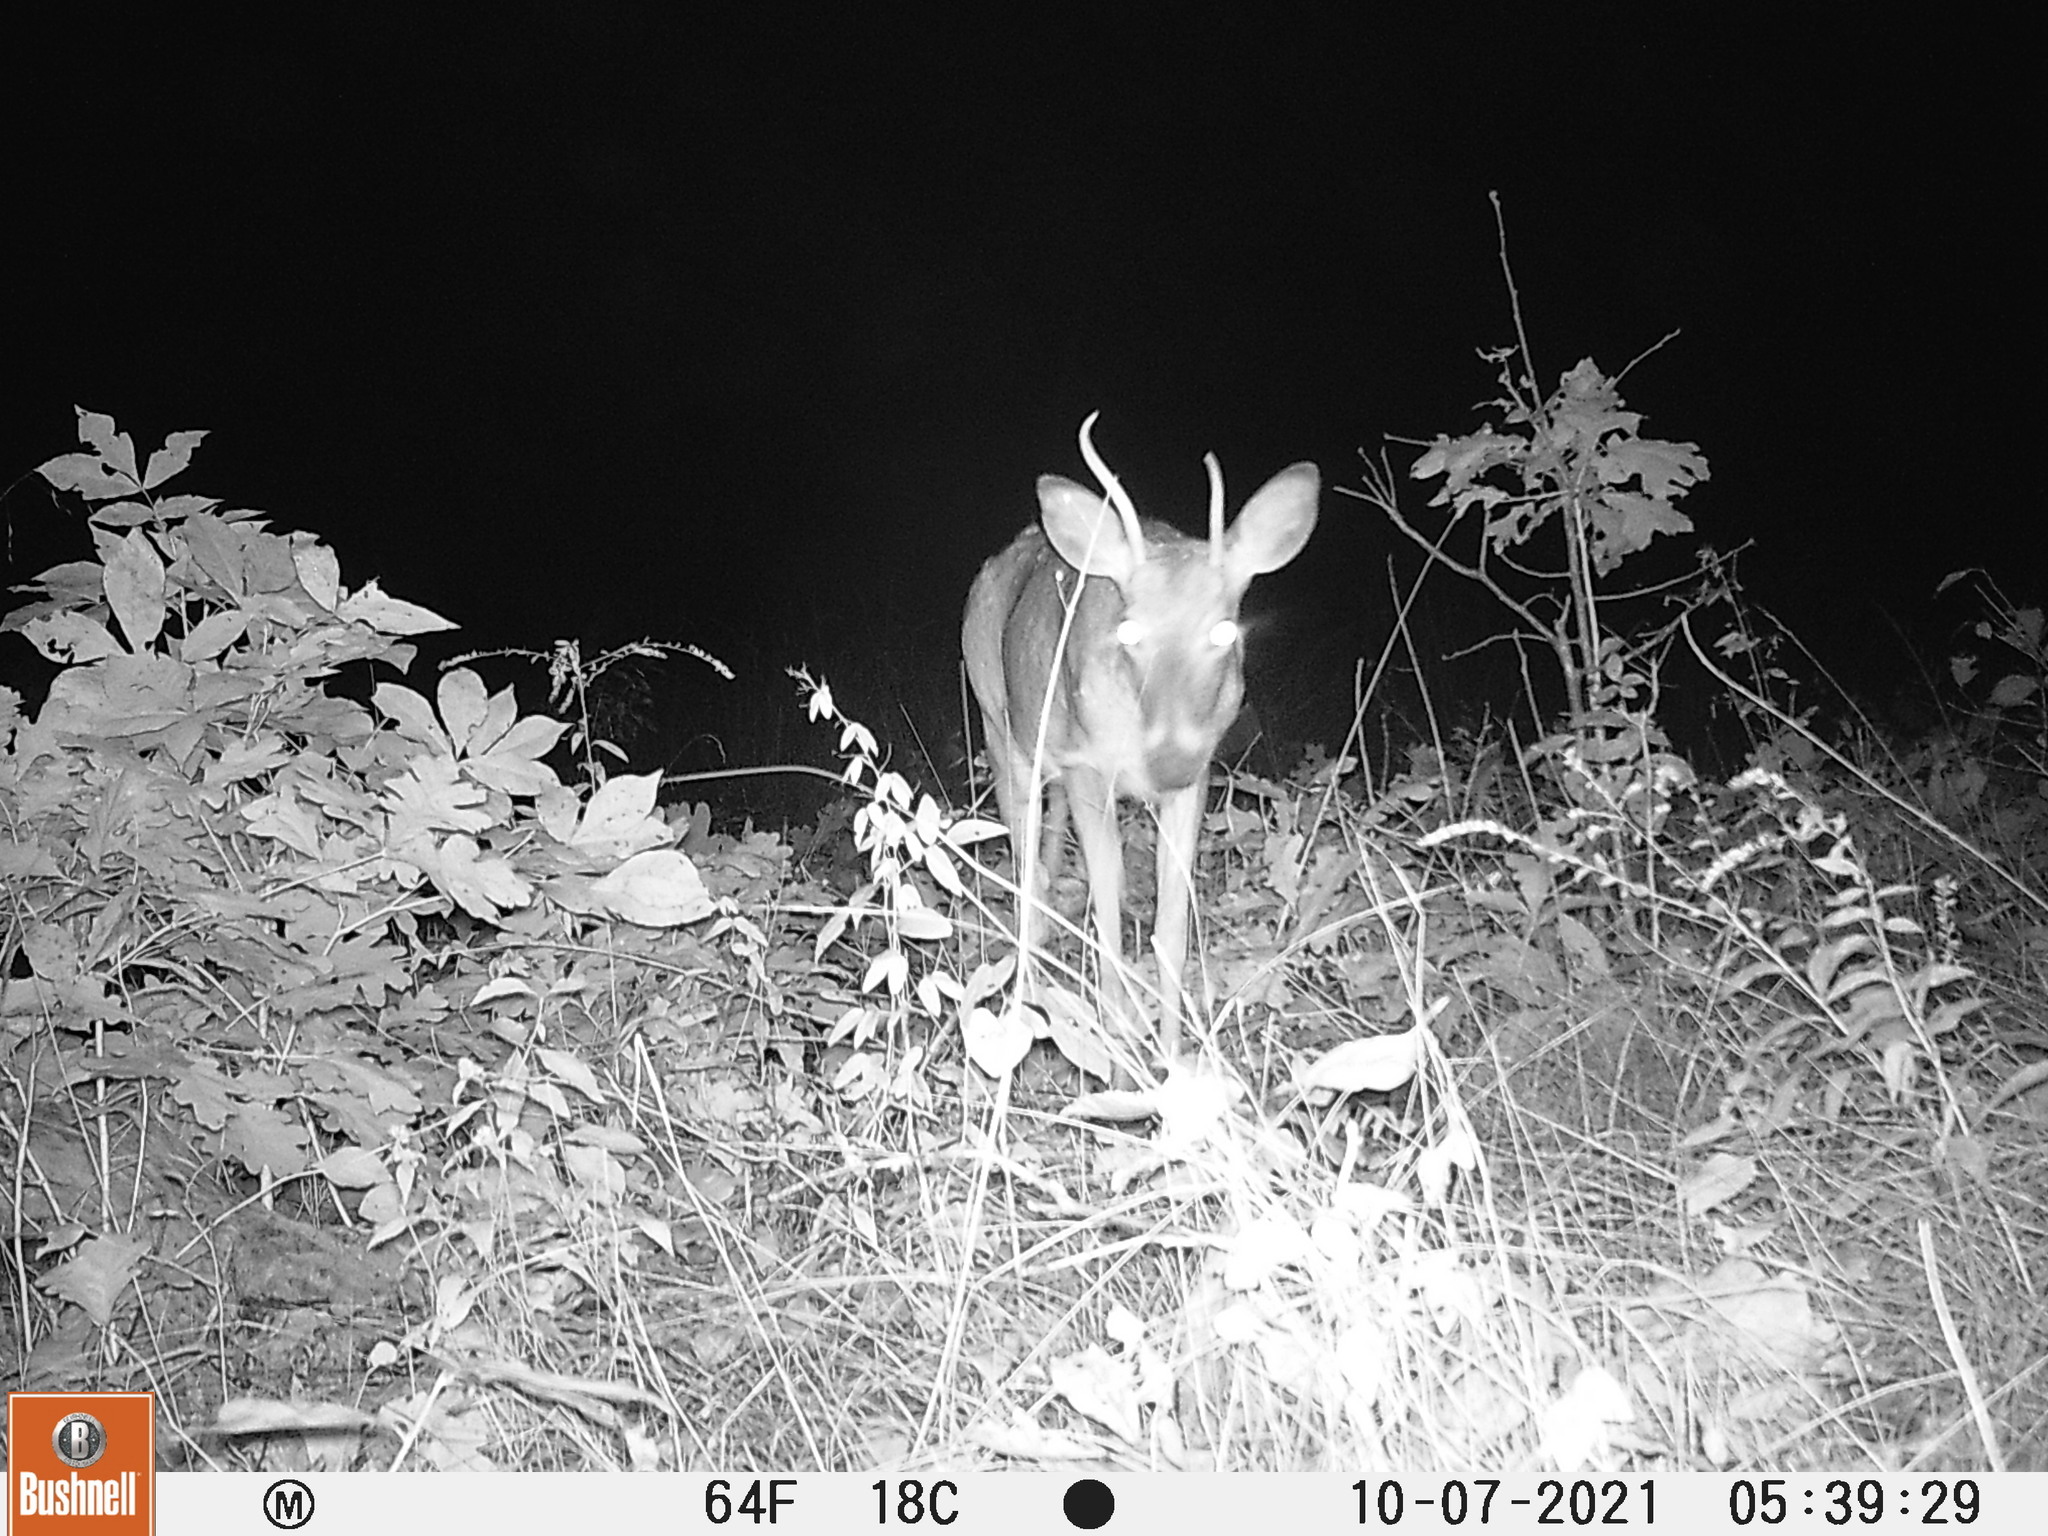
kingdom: Animalia
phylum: Chordata
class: Mammalia
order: Artiodactyla
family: Cervidae
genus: Odocoileus
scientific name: Odocoileus virginianus
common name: White-tailed deer
